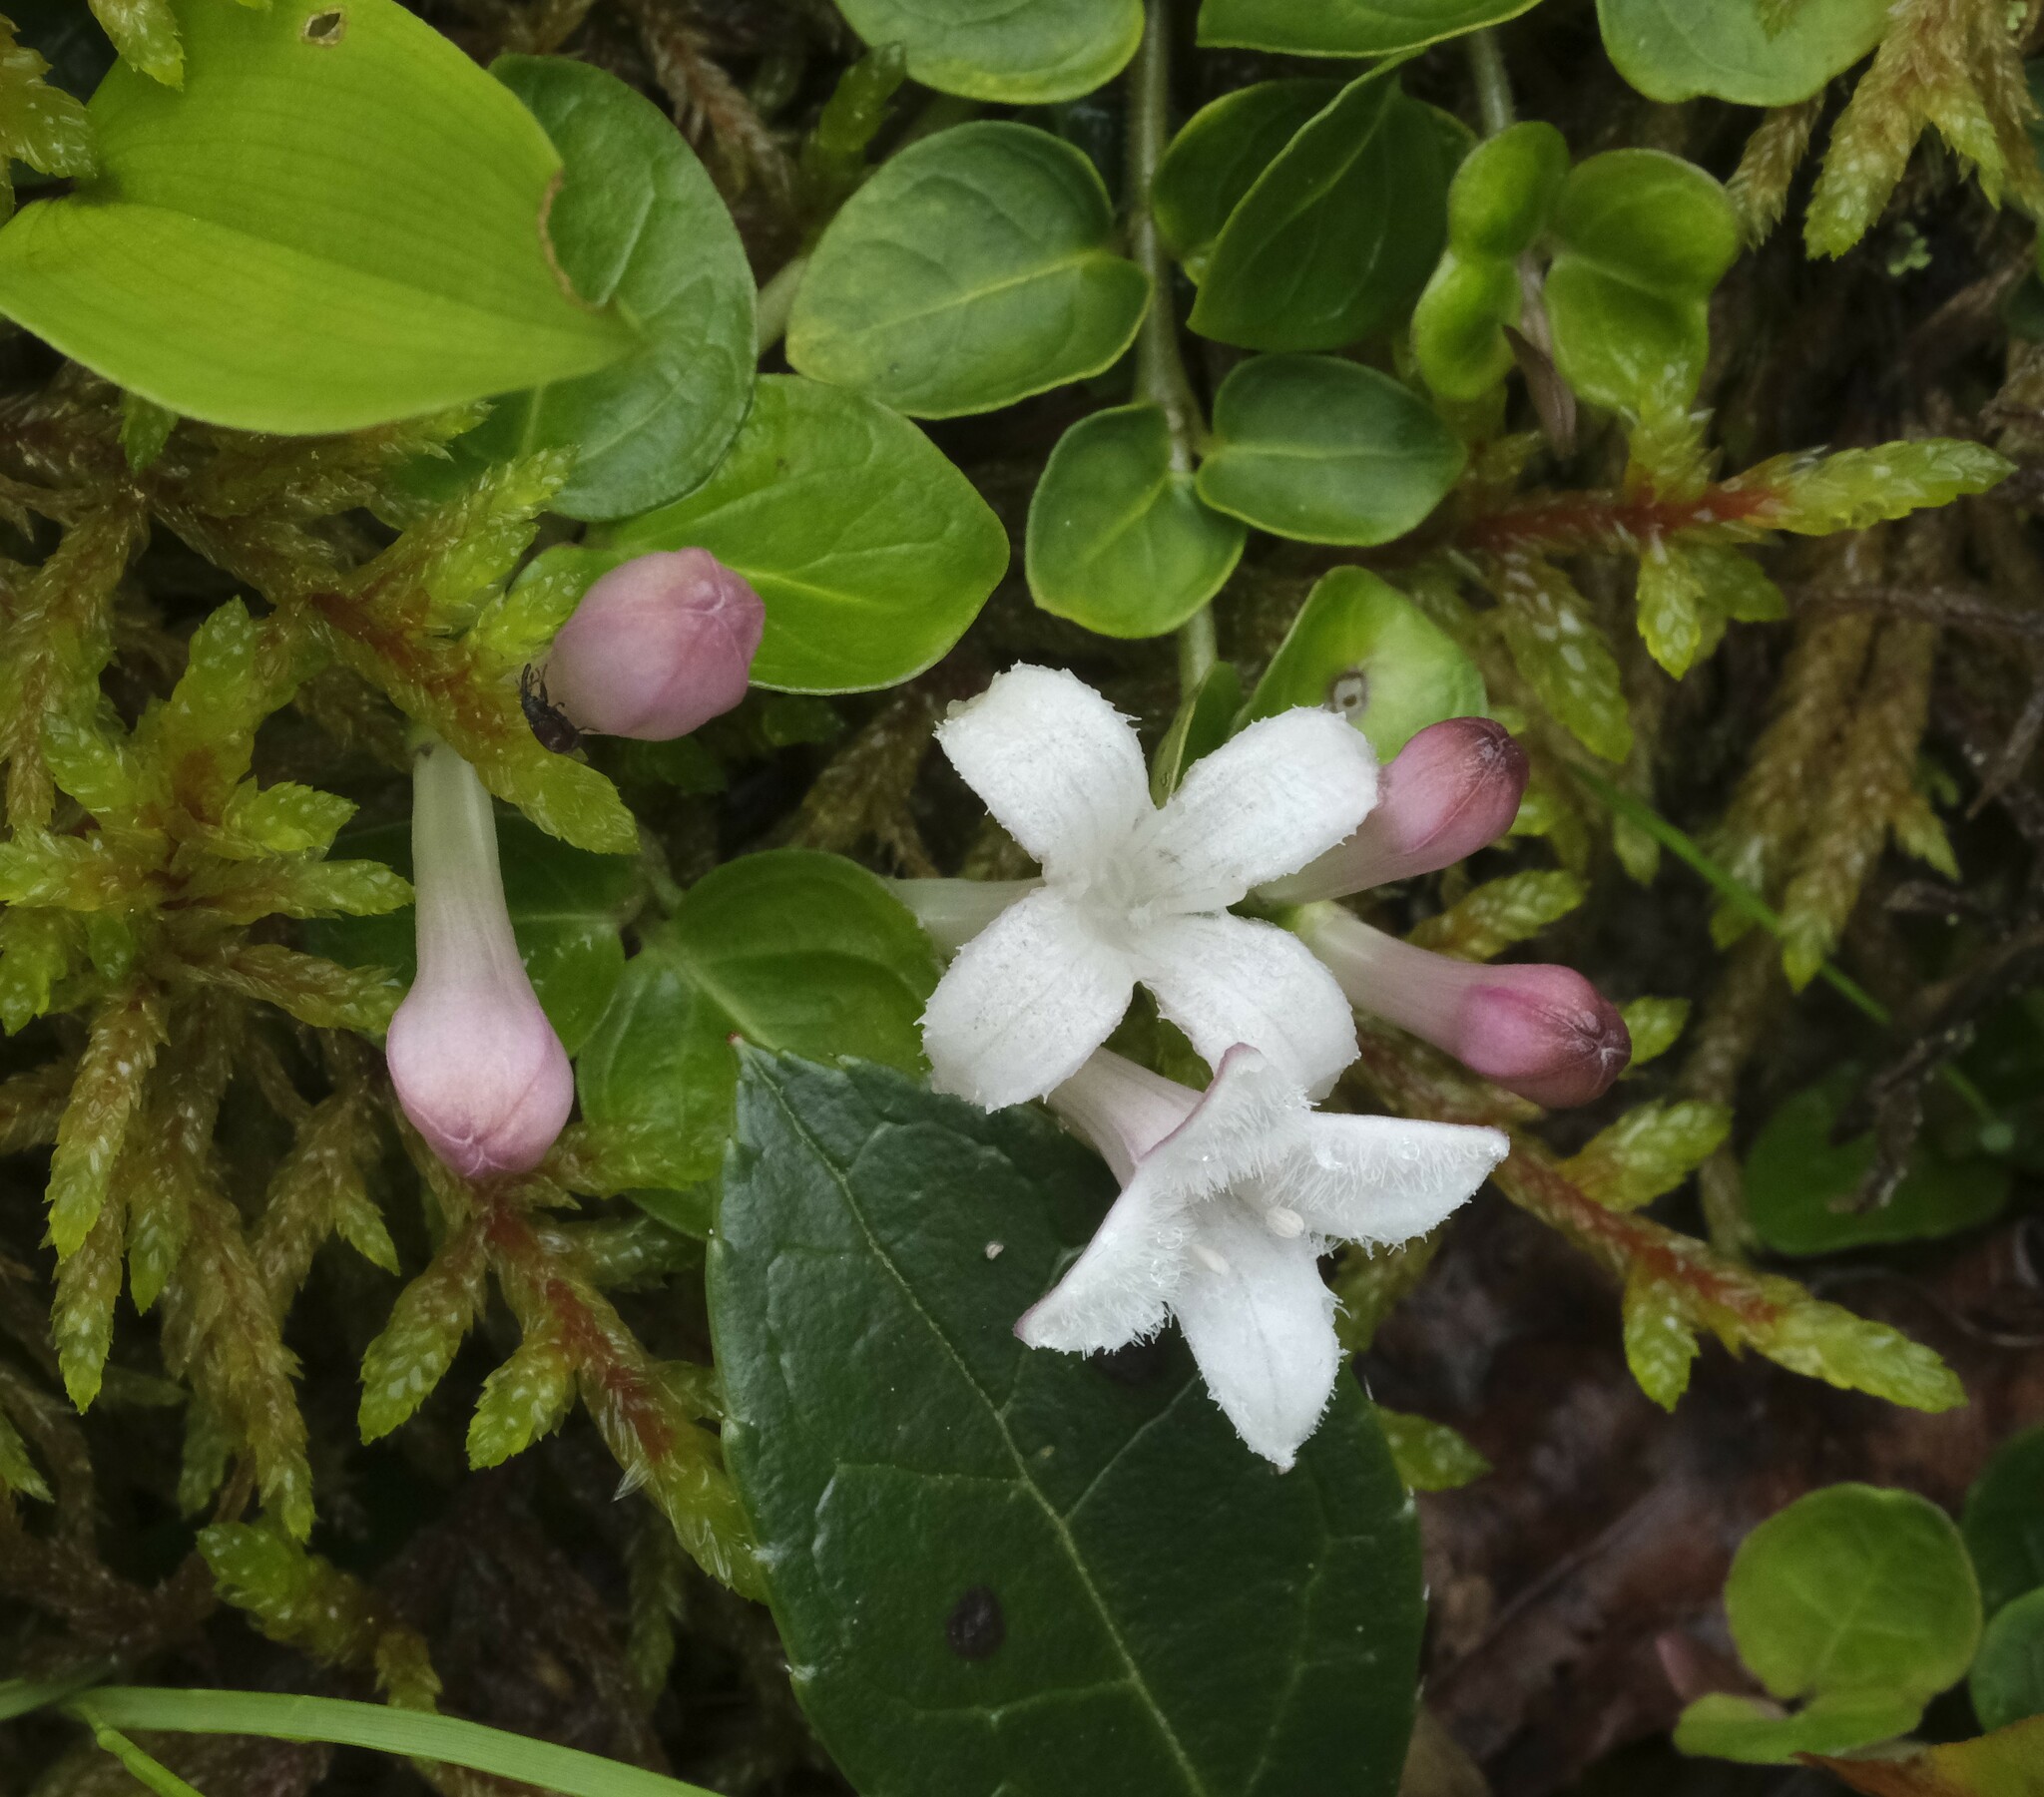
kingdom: Plantae
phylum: Tracheophyta
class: Magnoliopsida
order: Gentianales
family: Rubiaceae
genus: Mitchella
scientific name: Mitchella repens
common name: Partridge-berry
